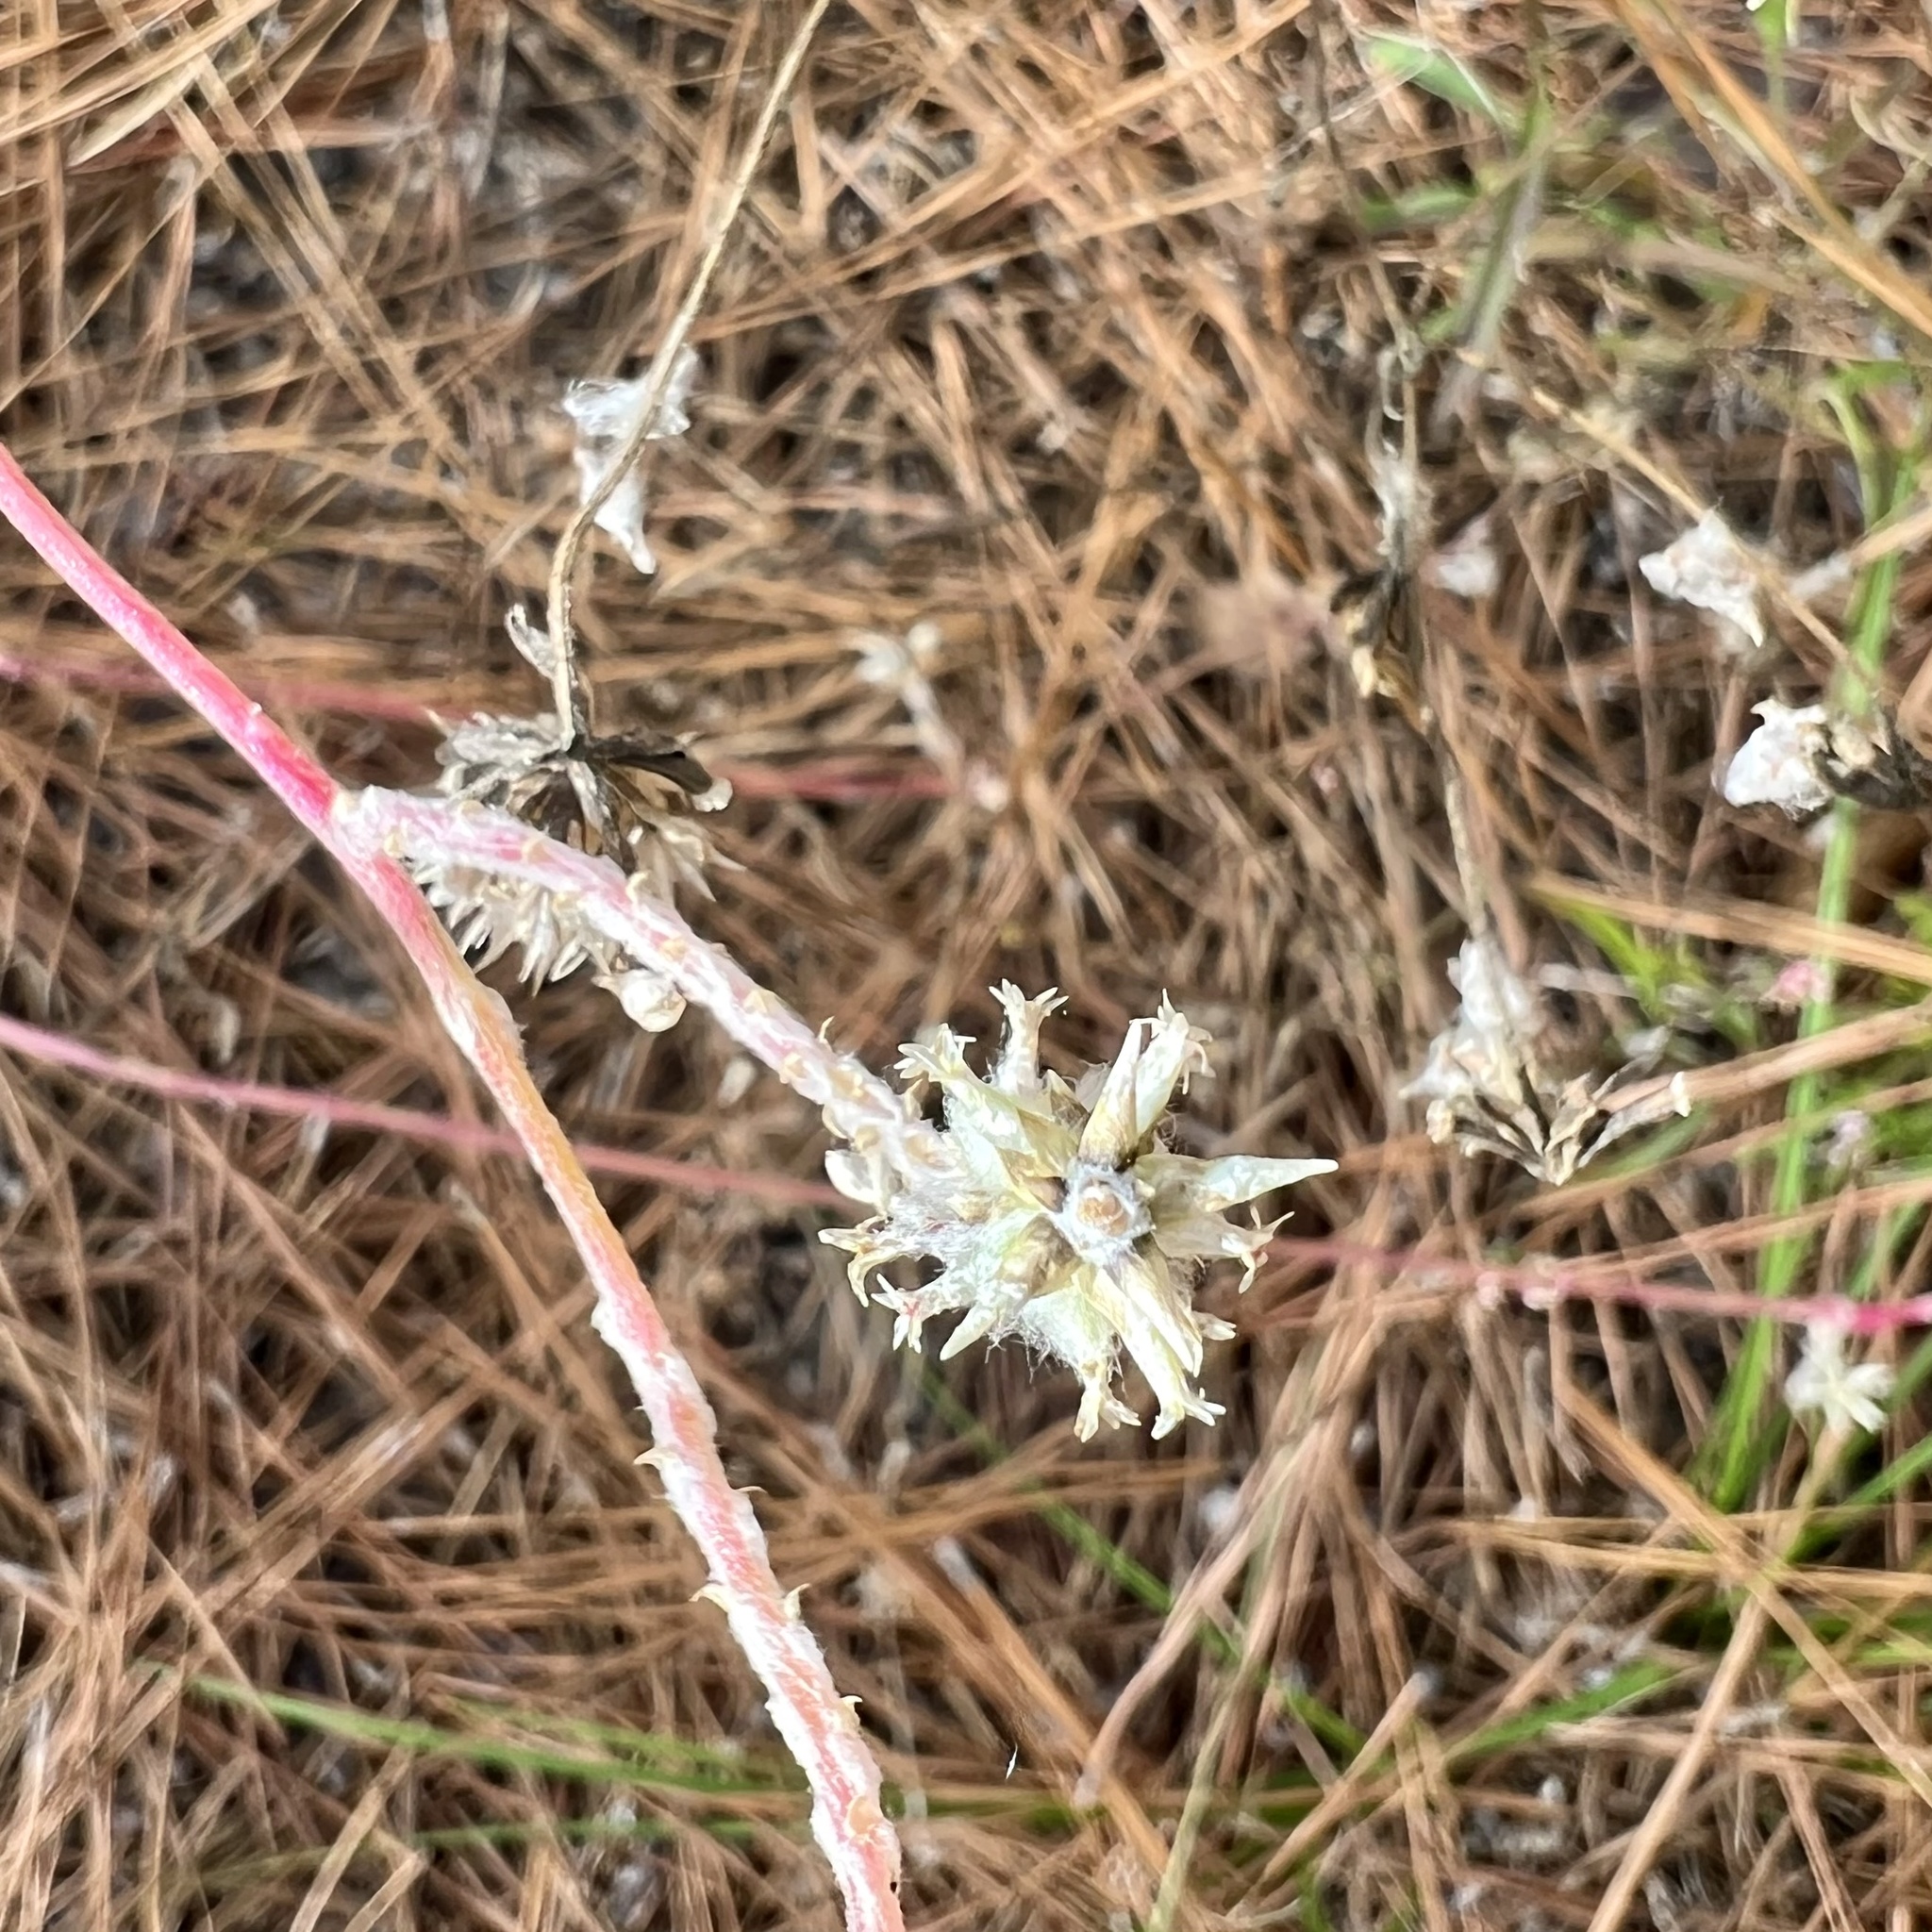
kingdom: Plantae
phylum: Tracheophyta
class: Magnoliopsida
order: Caryophyllales
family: Amaranthaceae
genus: Froelichia
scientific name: Froelichia floridana
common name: Florida snake-cotton
